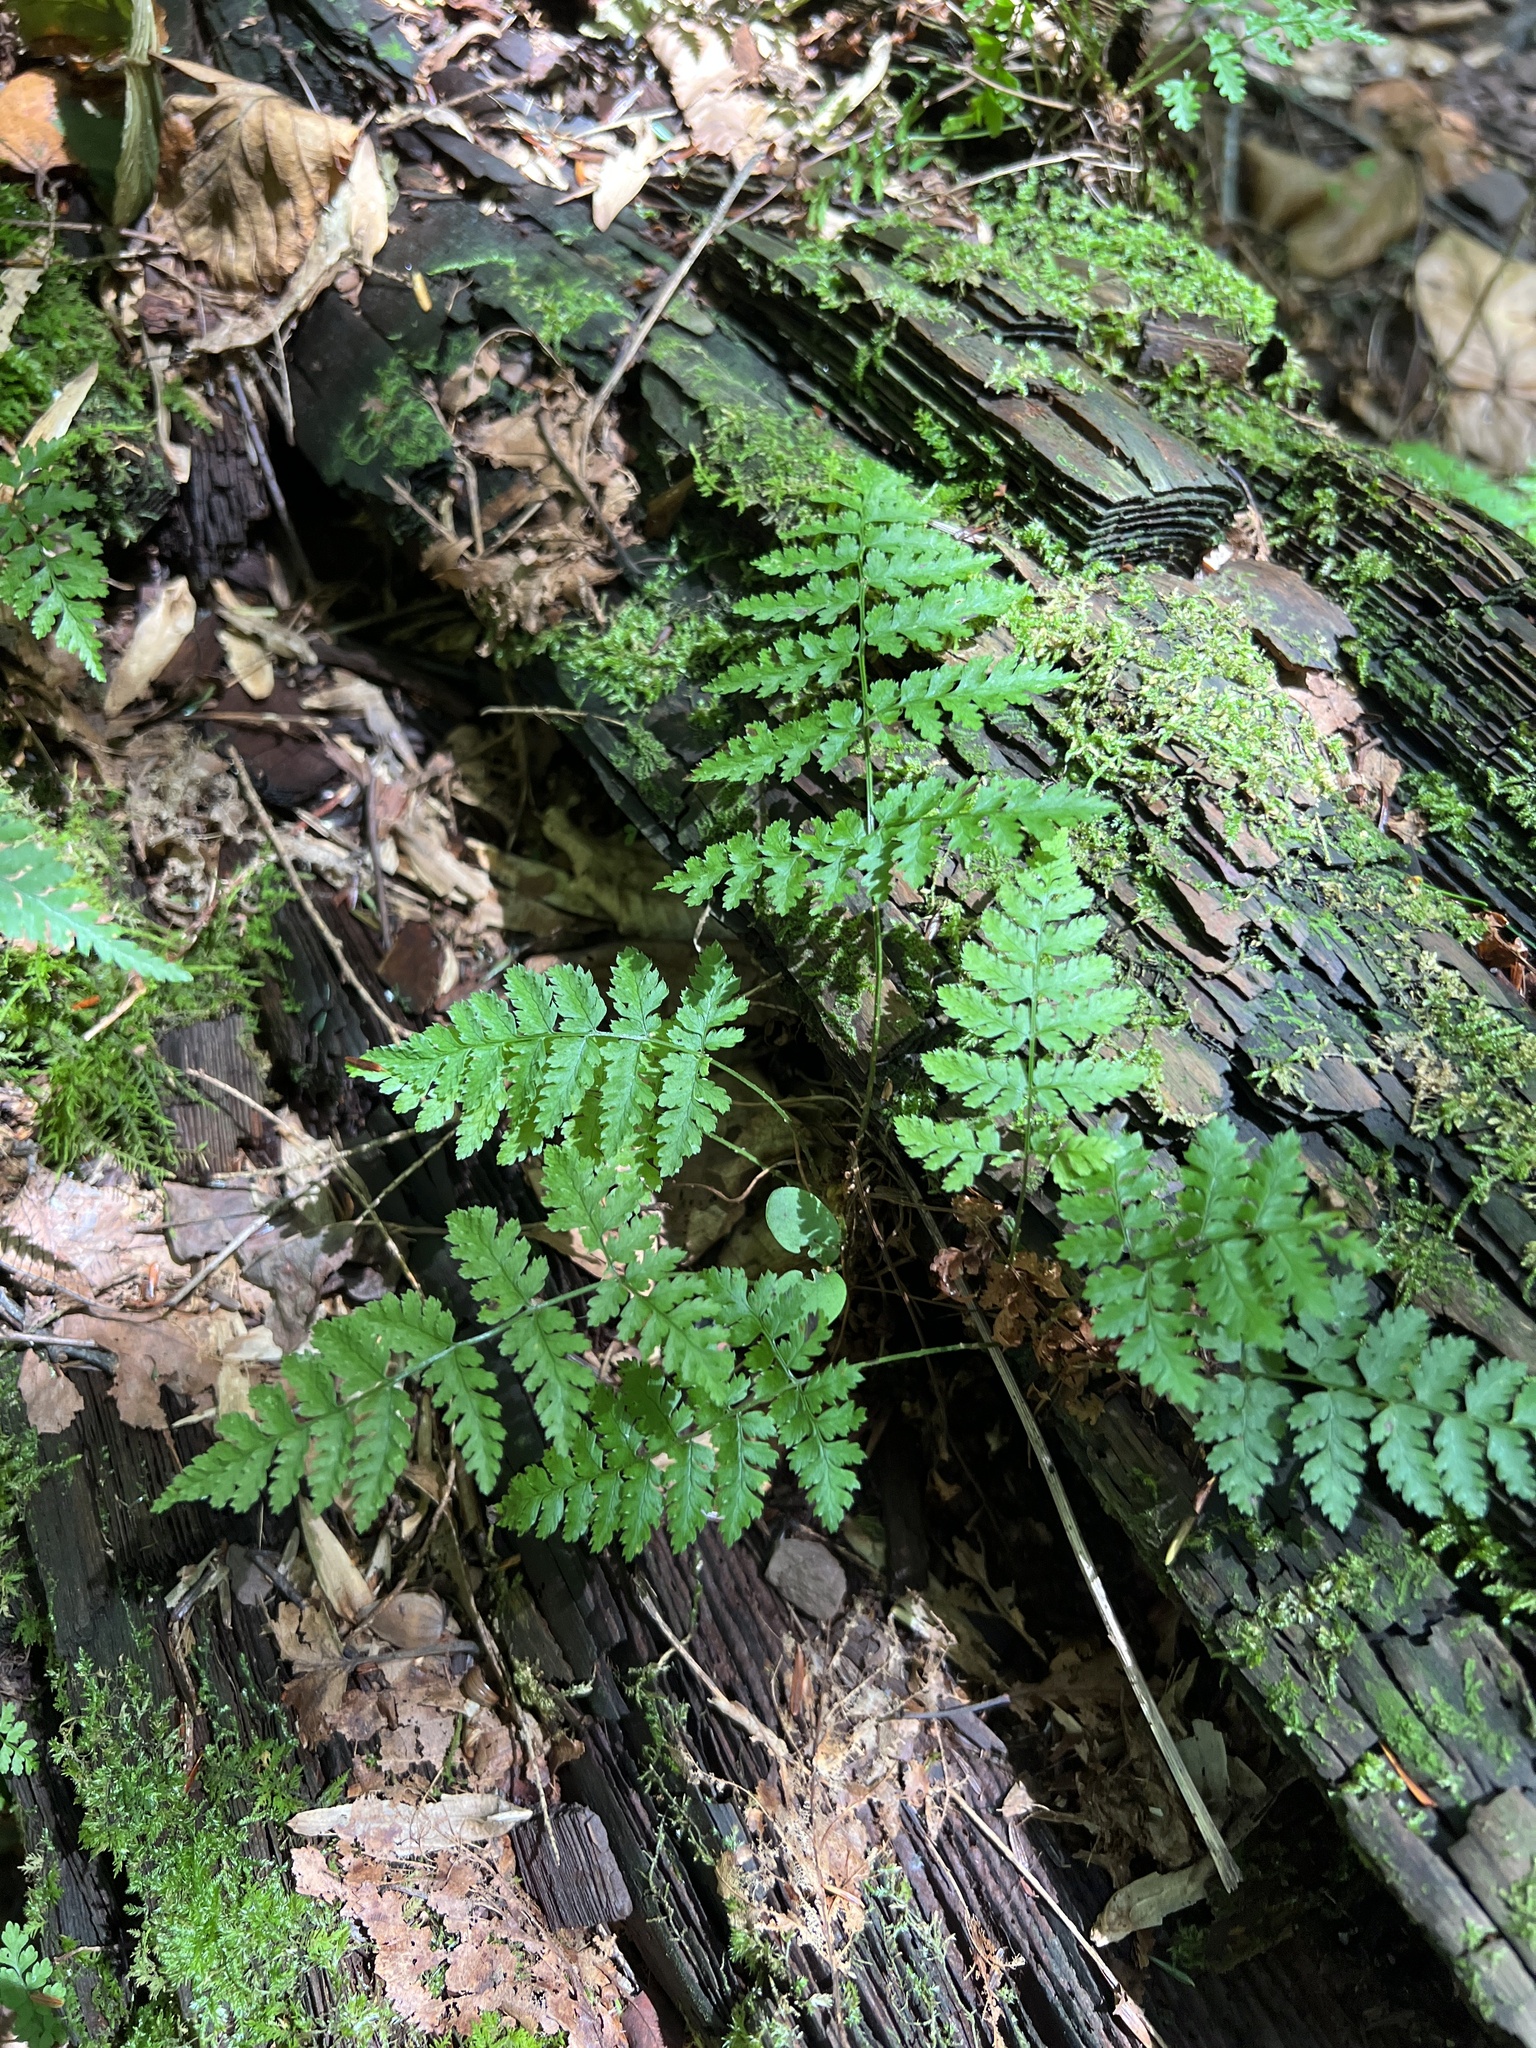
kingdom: Plantae
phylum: Tracheophyta
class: Polypodiopsida
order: Polypodiales
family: Dryopteridaceae
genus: Dryopteris
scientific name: Dryopteris intermedia
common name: Evergreen wood fern
